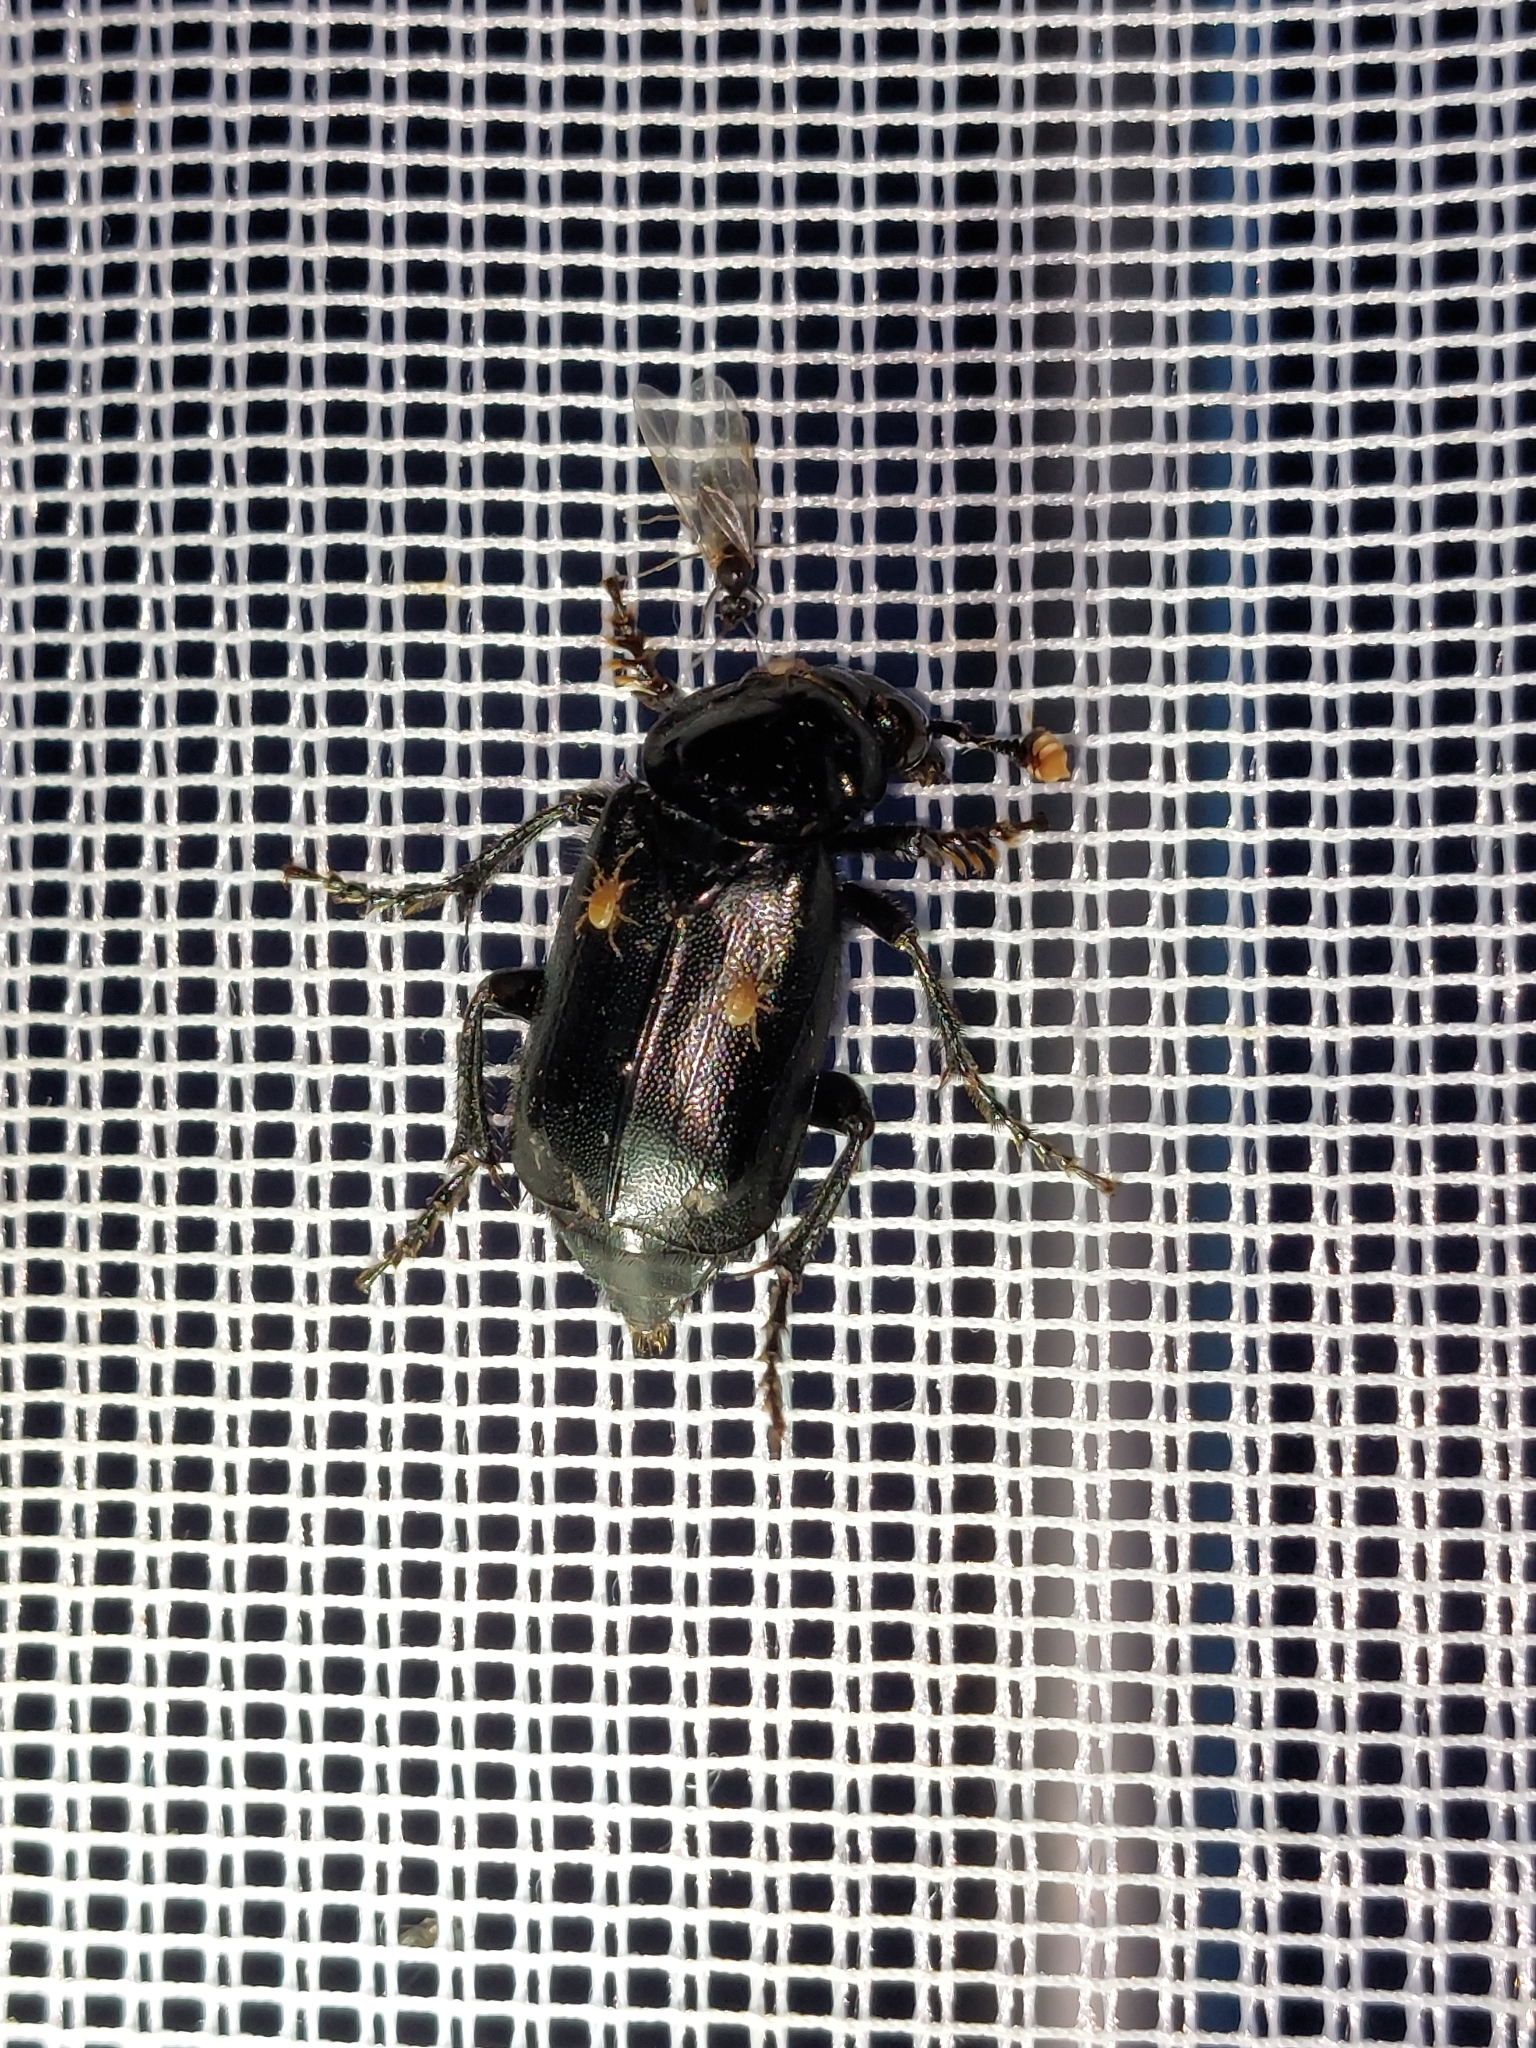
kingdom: Animalia
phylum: Arthropoda
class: Insecta
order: Coleoptera
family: Staphylinidae
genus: Nicrophorus
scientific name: Nicrophorus humator
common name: Black sexton beetle
